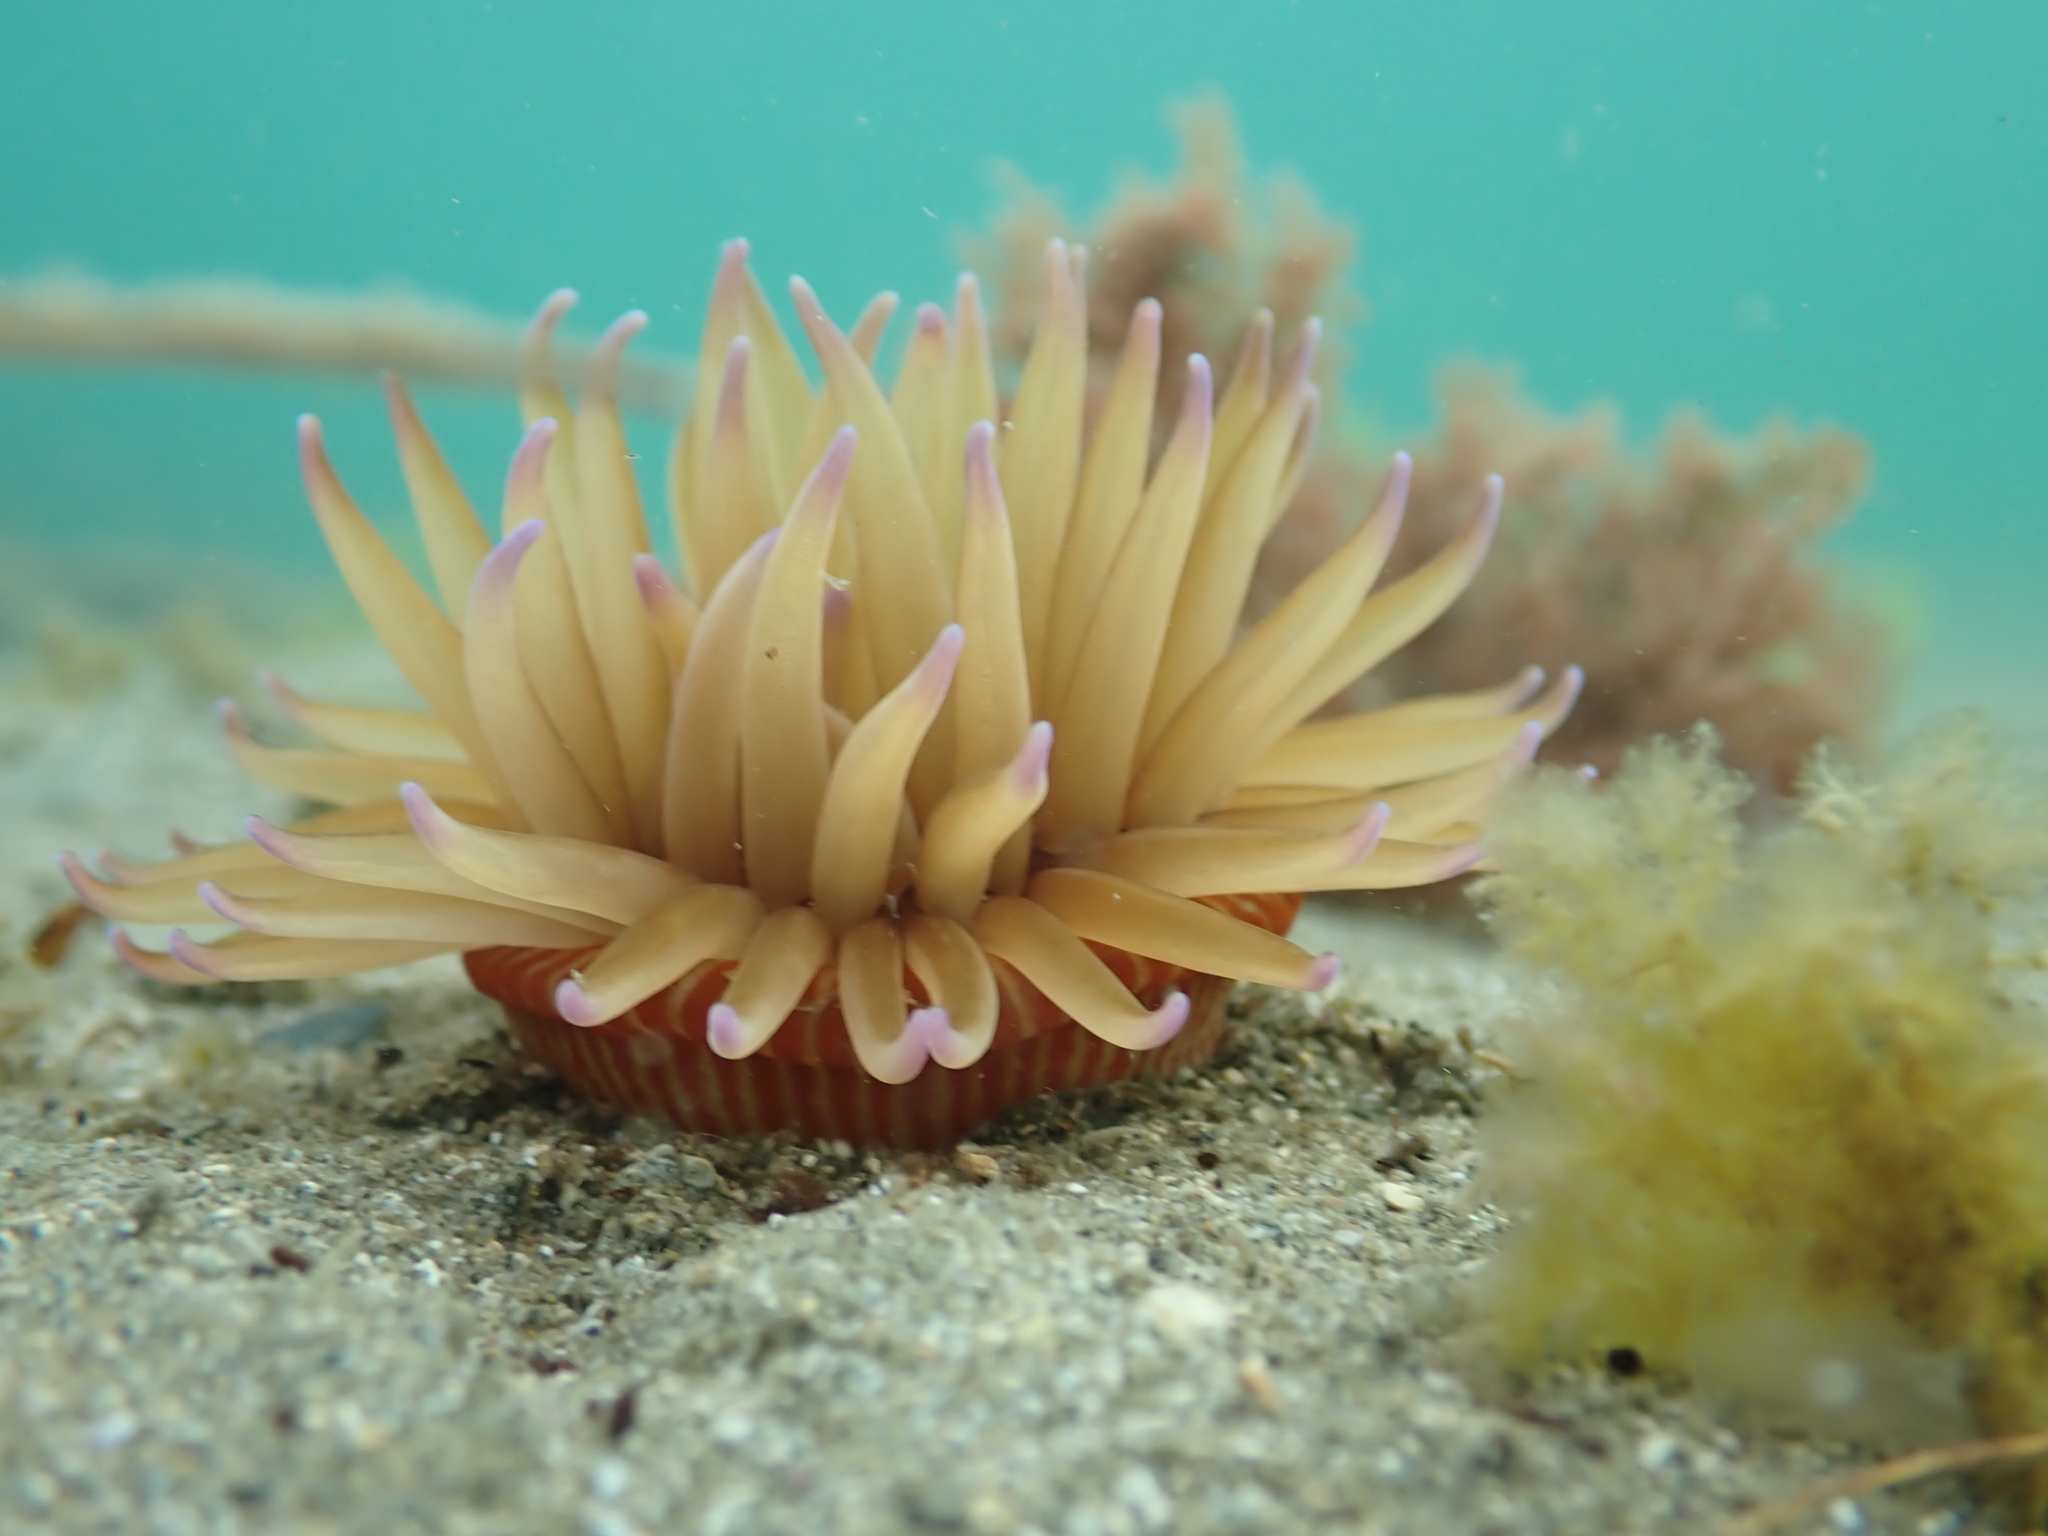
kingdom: Animalia
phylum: Cnidaria
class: Anthozoa
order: Actiniaria
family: Actiniidae
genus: Epiactis
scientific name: Epiactis thompsoni
